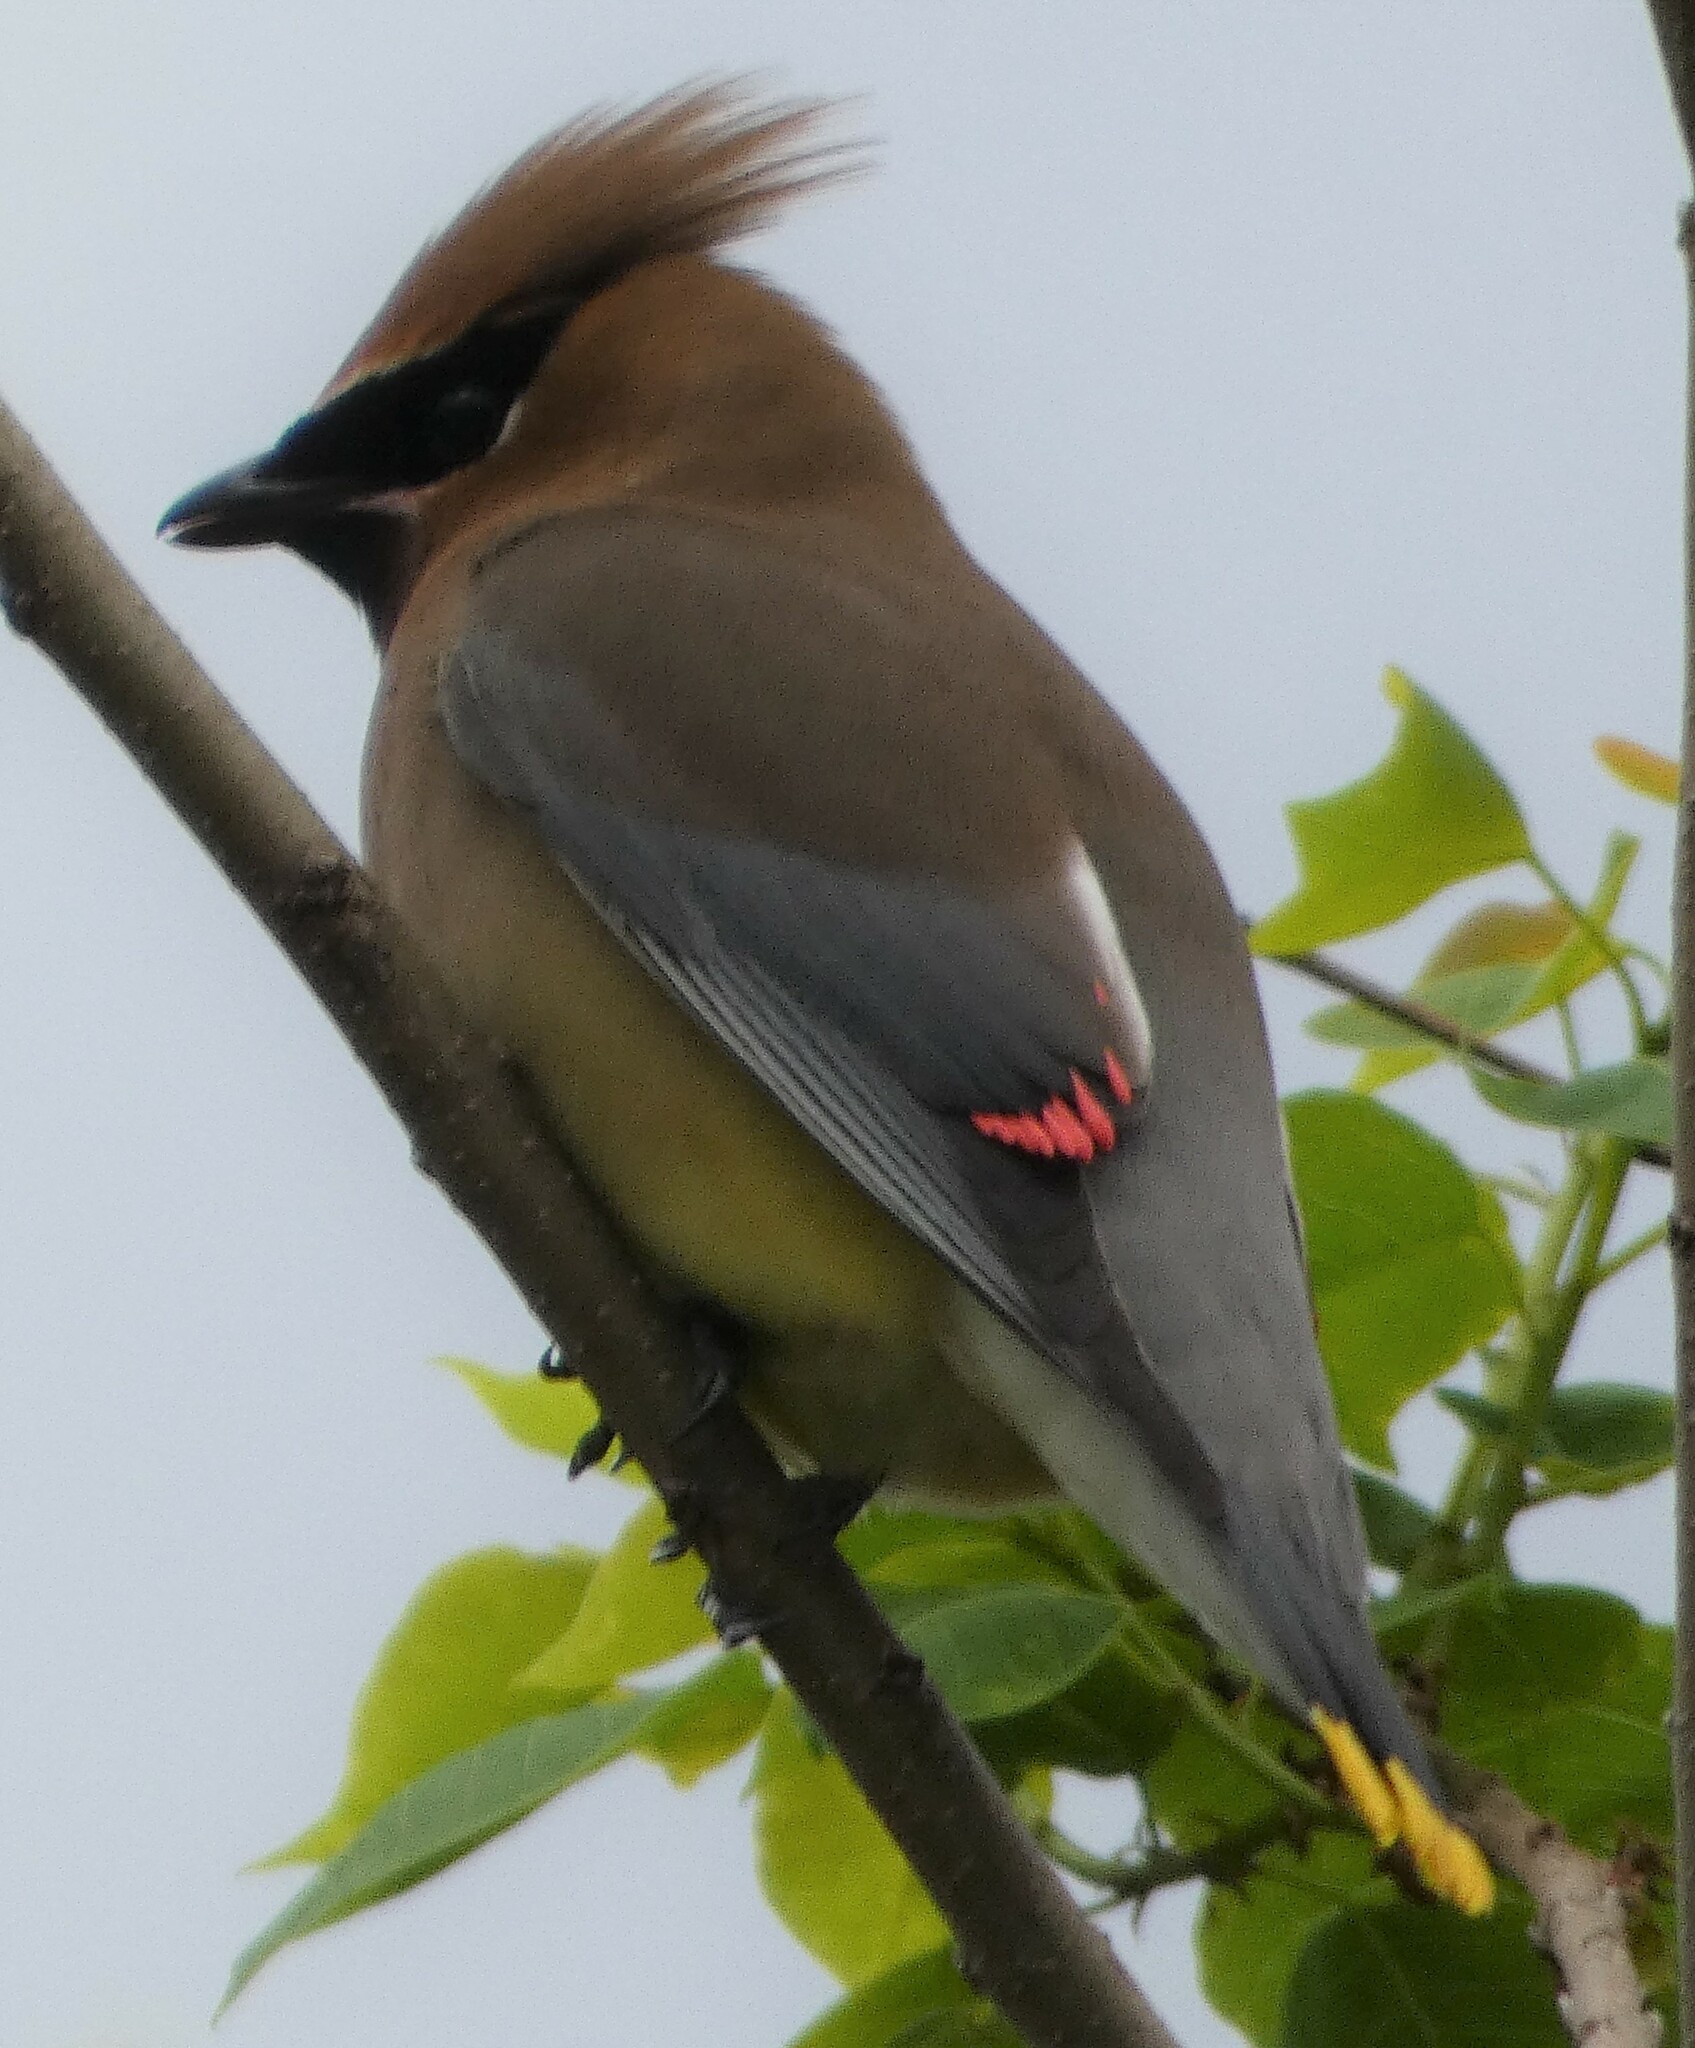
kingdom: Animalia
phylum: Chordata
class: Aves
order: Passeriformes
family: Bombycillidae
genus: Bombycilla
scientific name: Bombycilla cedrorum
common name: Cedar waxwing
